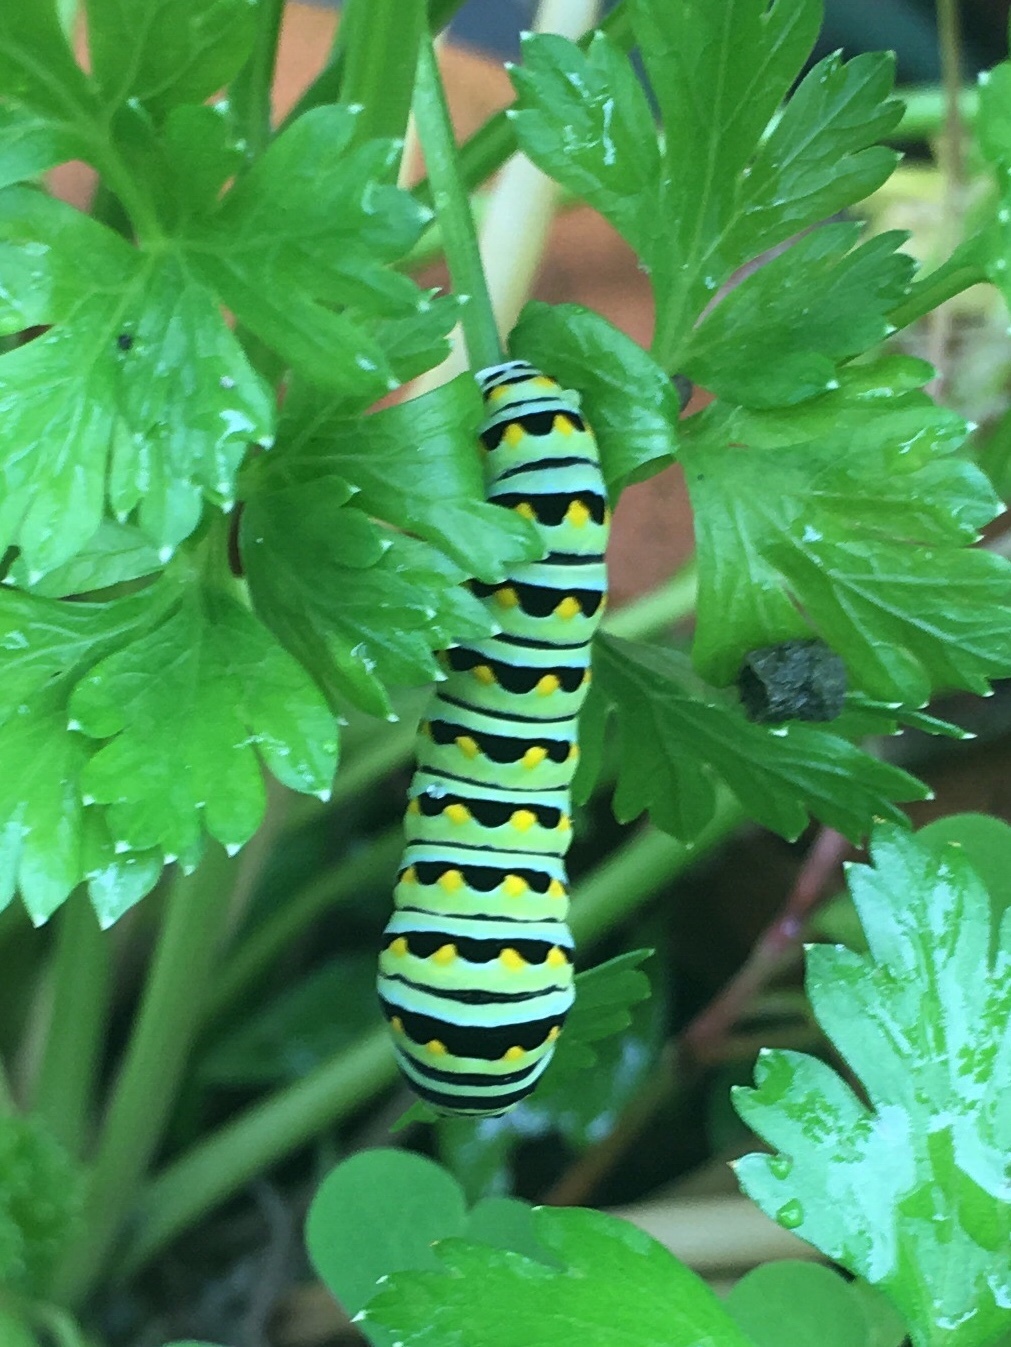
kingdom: Animalia
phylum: Arthropoda
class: Insecta
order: Lepidoptera
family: Papilionidae
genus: Papilio
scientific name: Papilio polyxenes
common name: Black swallowtail
